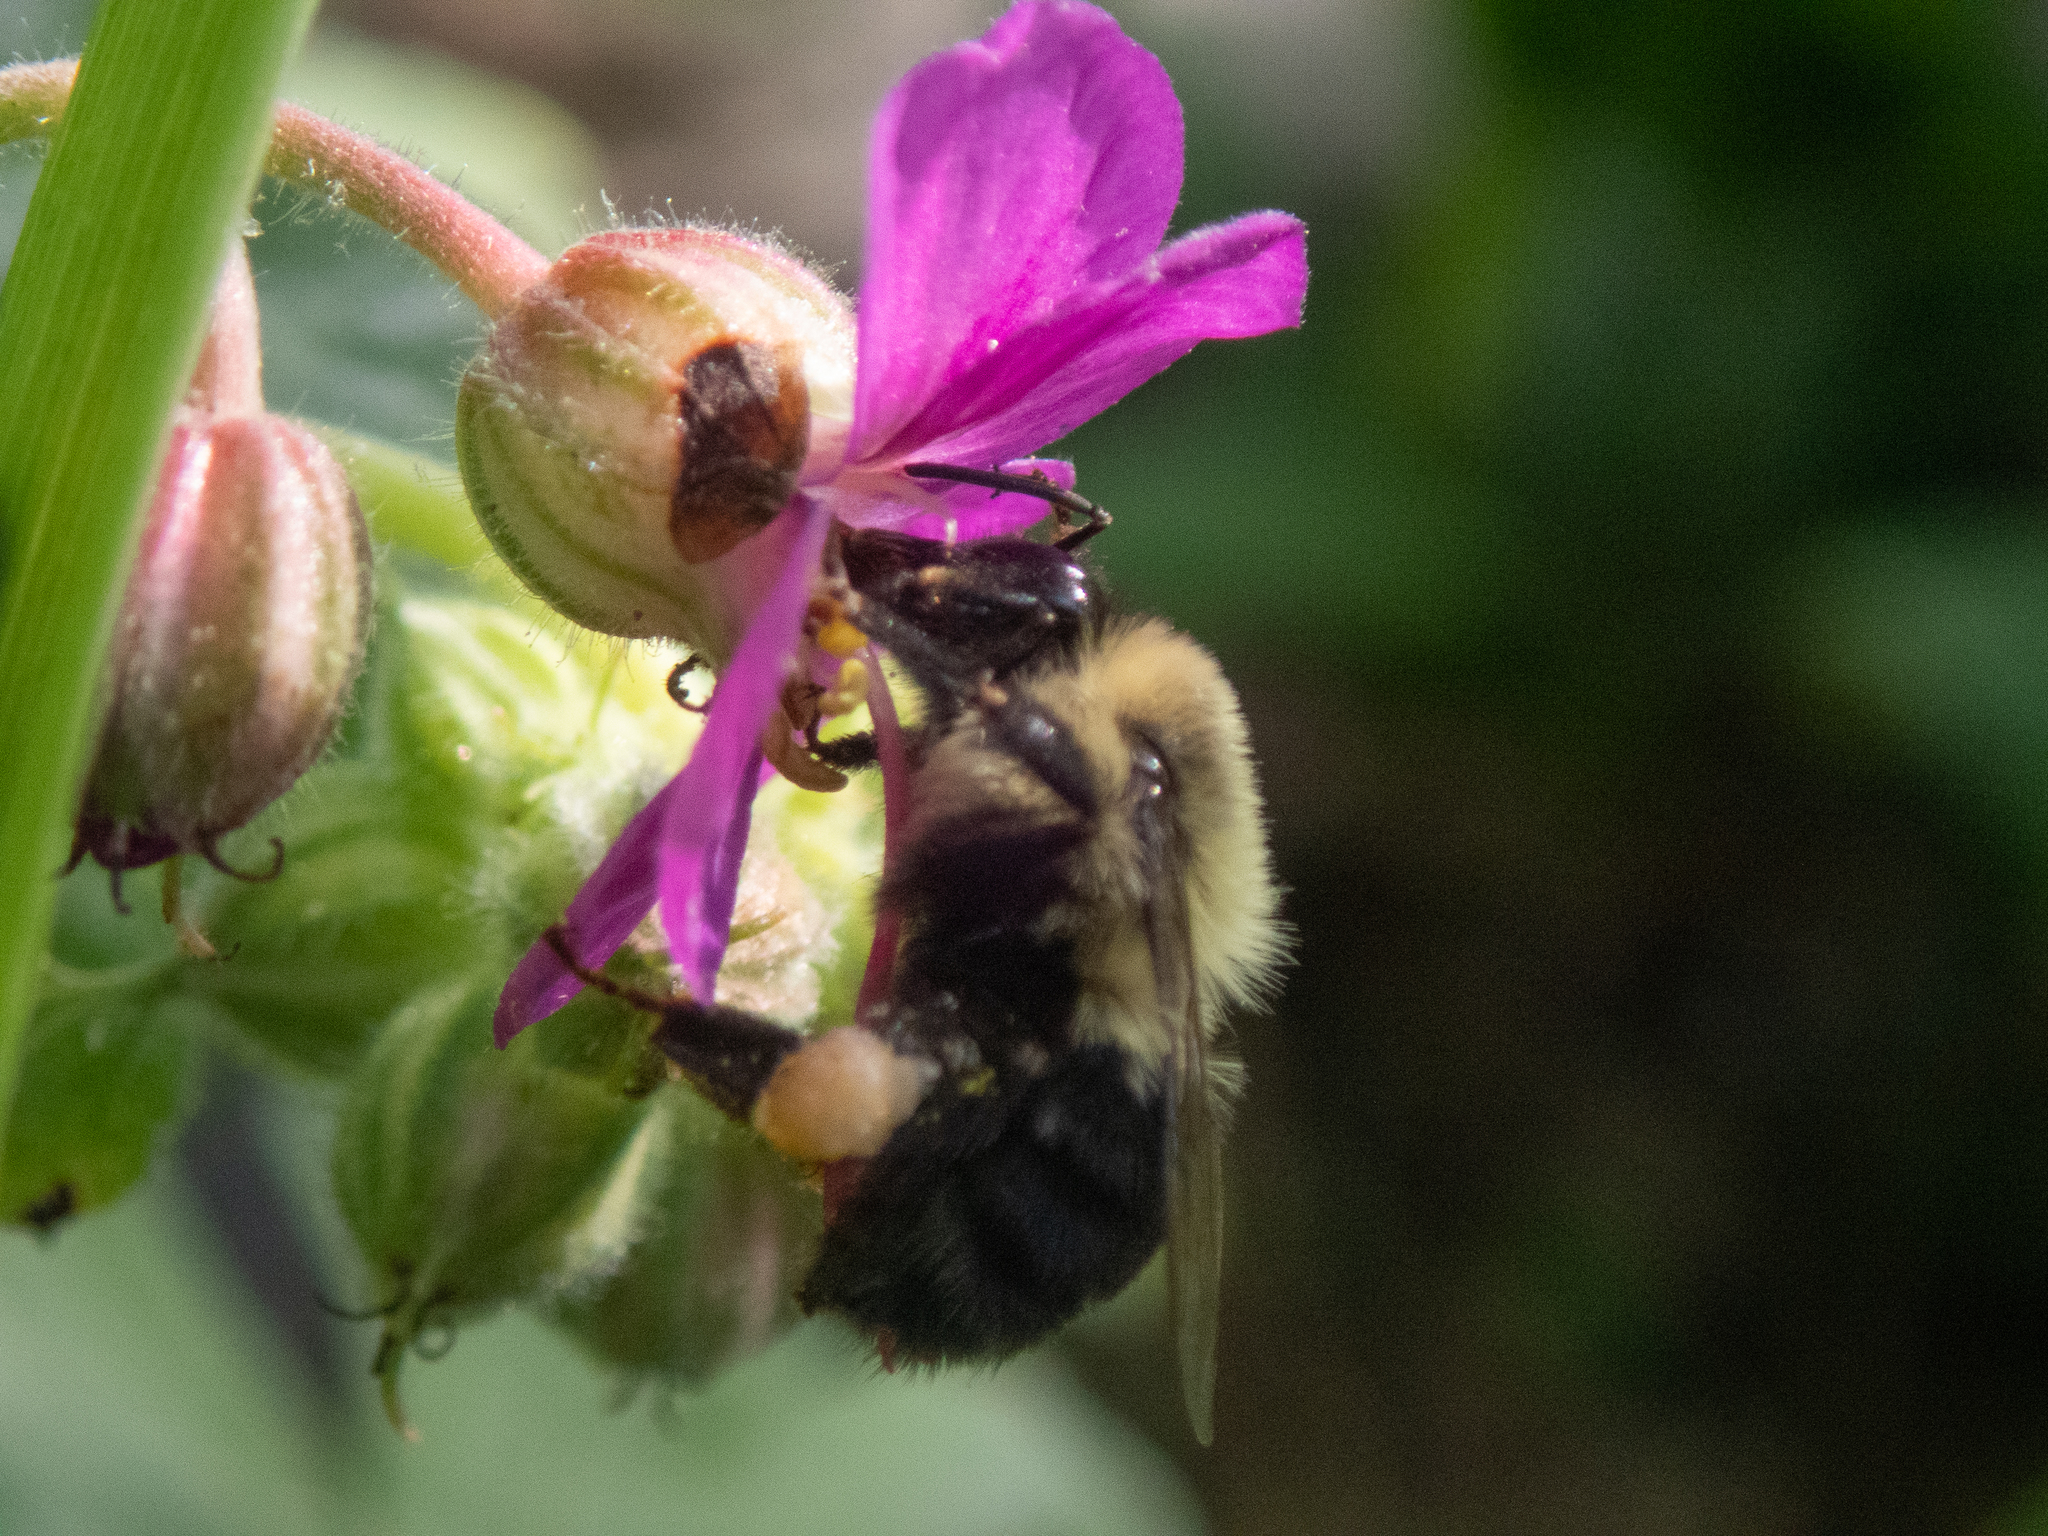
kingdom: Animalia
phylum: Arthropoda
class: Insecta
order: Hymenoptera
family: Apidae
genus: Bombus
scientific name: Bombus impatiens
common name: Common eastern bumble bee
